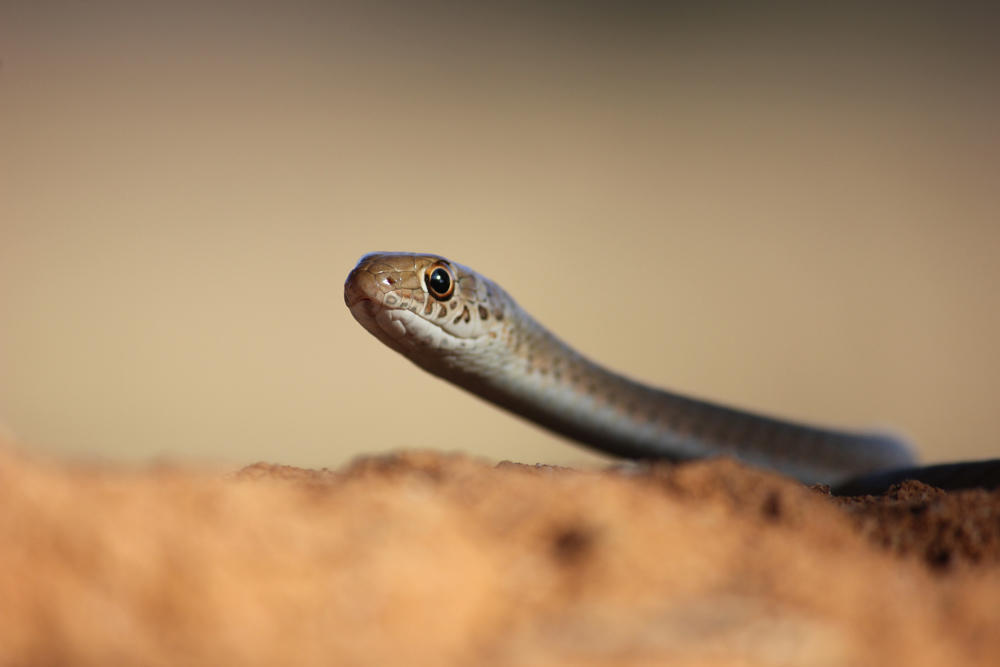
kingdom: Animalia
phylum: Chordata
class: Squamata
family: Psammophiidae
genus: Psammophis
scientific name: Psammophis brevirostris
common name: Short-snouted grass snake
